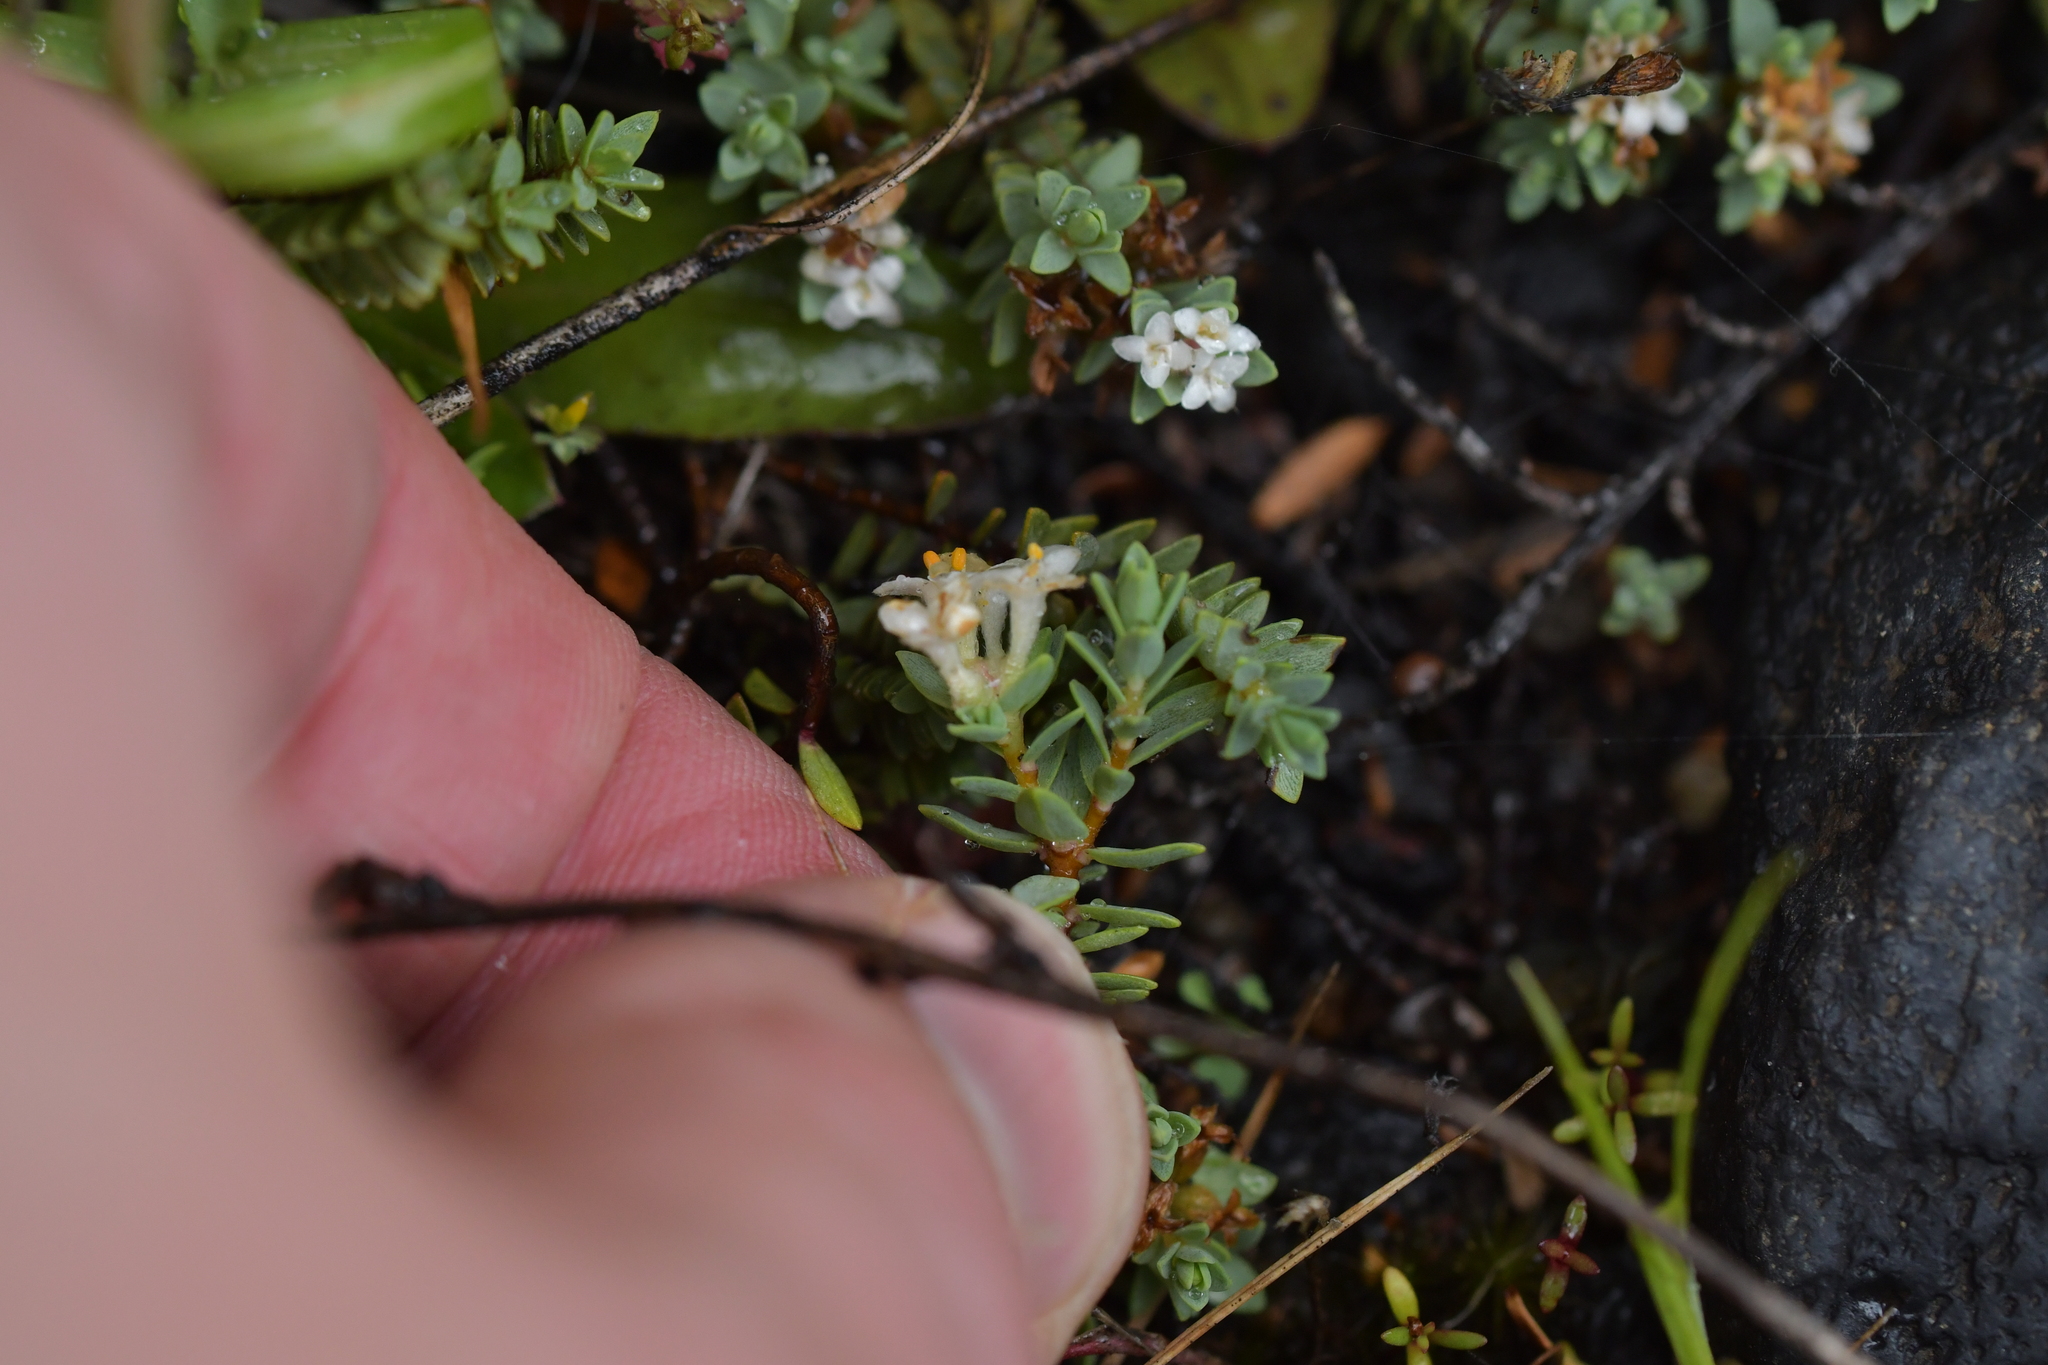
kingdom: Plantae
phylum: Tracheophyta
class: Magnoliopsida
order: Malvales
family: Thymelaeaceae
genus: Pimelea
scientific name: Pimelea prostrata
